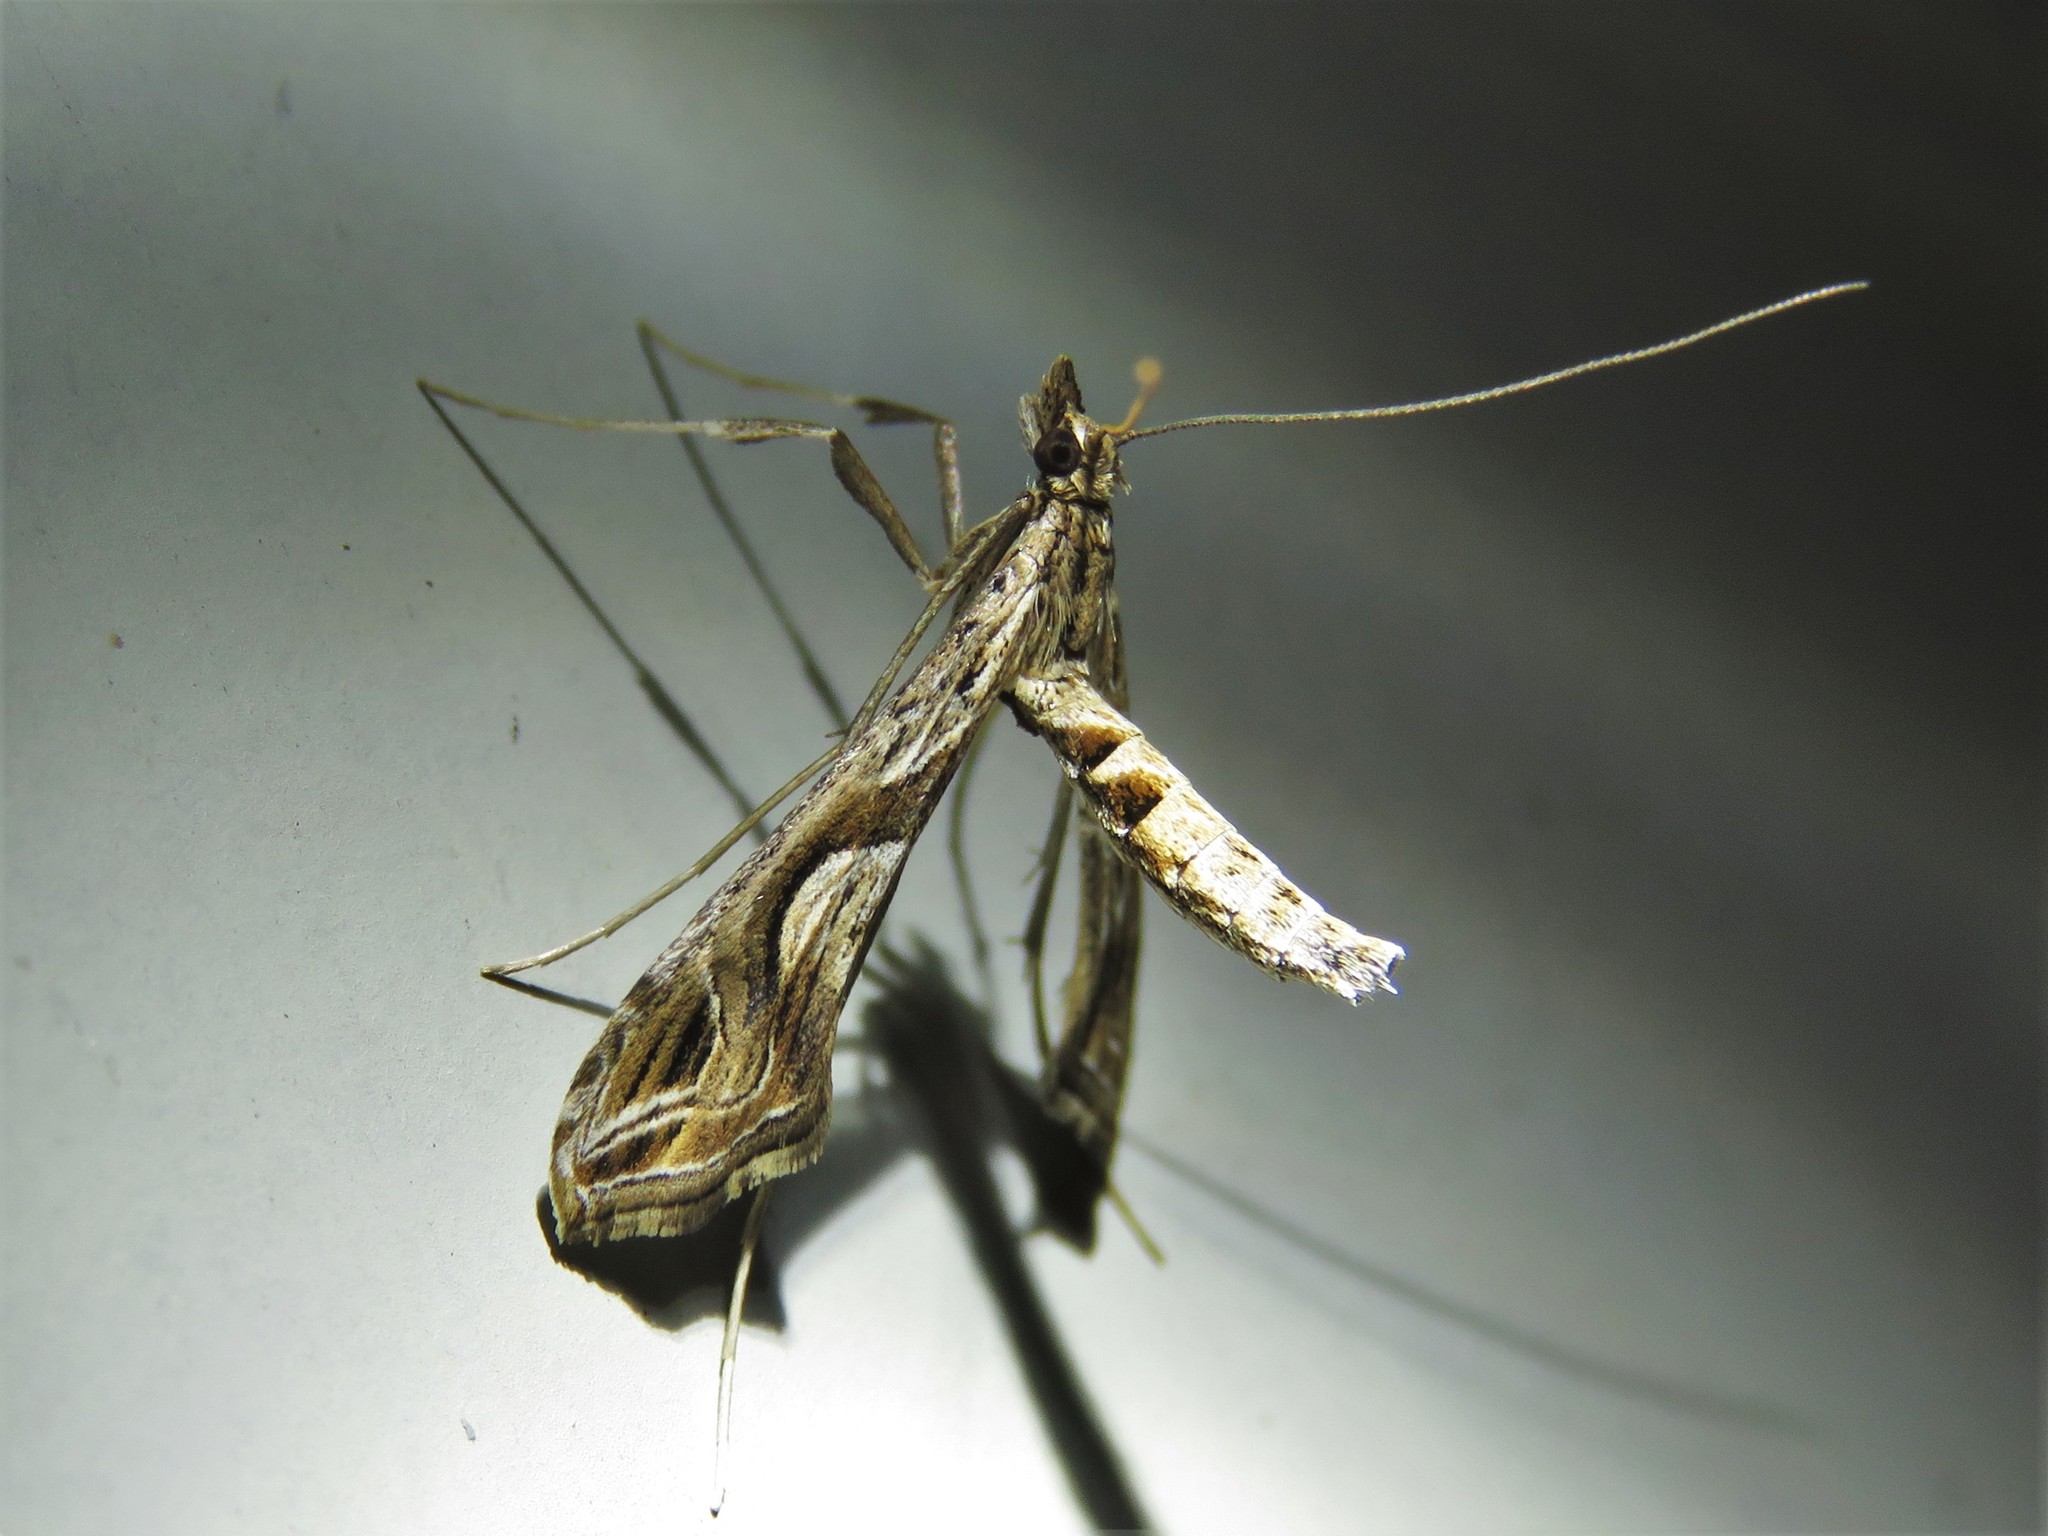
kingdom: Animalia
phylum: Arthropoda
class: Insecta
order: Lepidoptera
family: Crambidae
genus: Lineodes
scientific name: Lineodes integra
